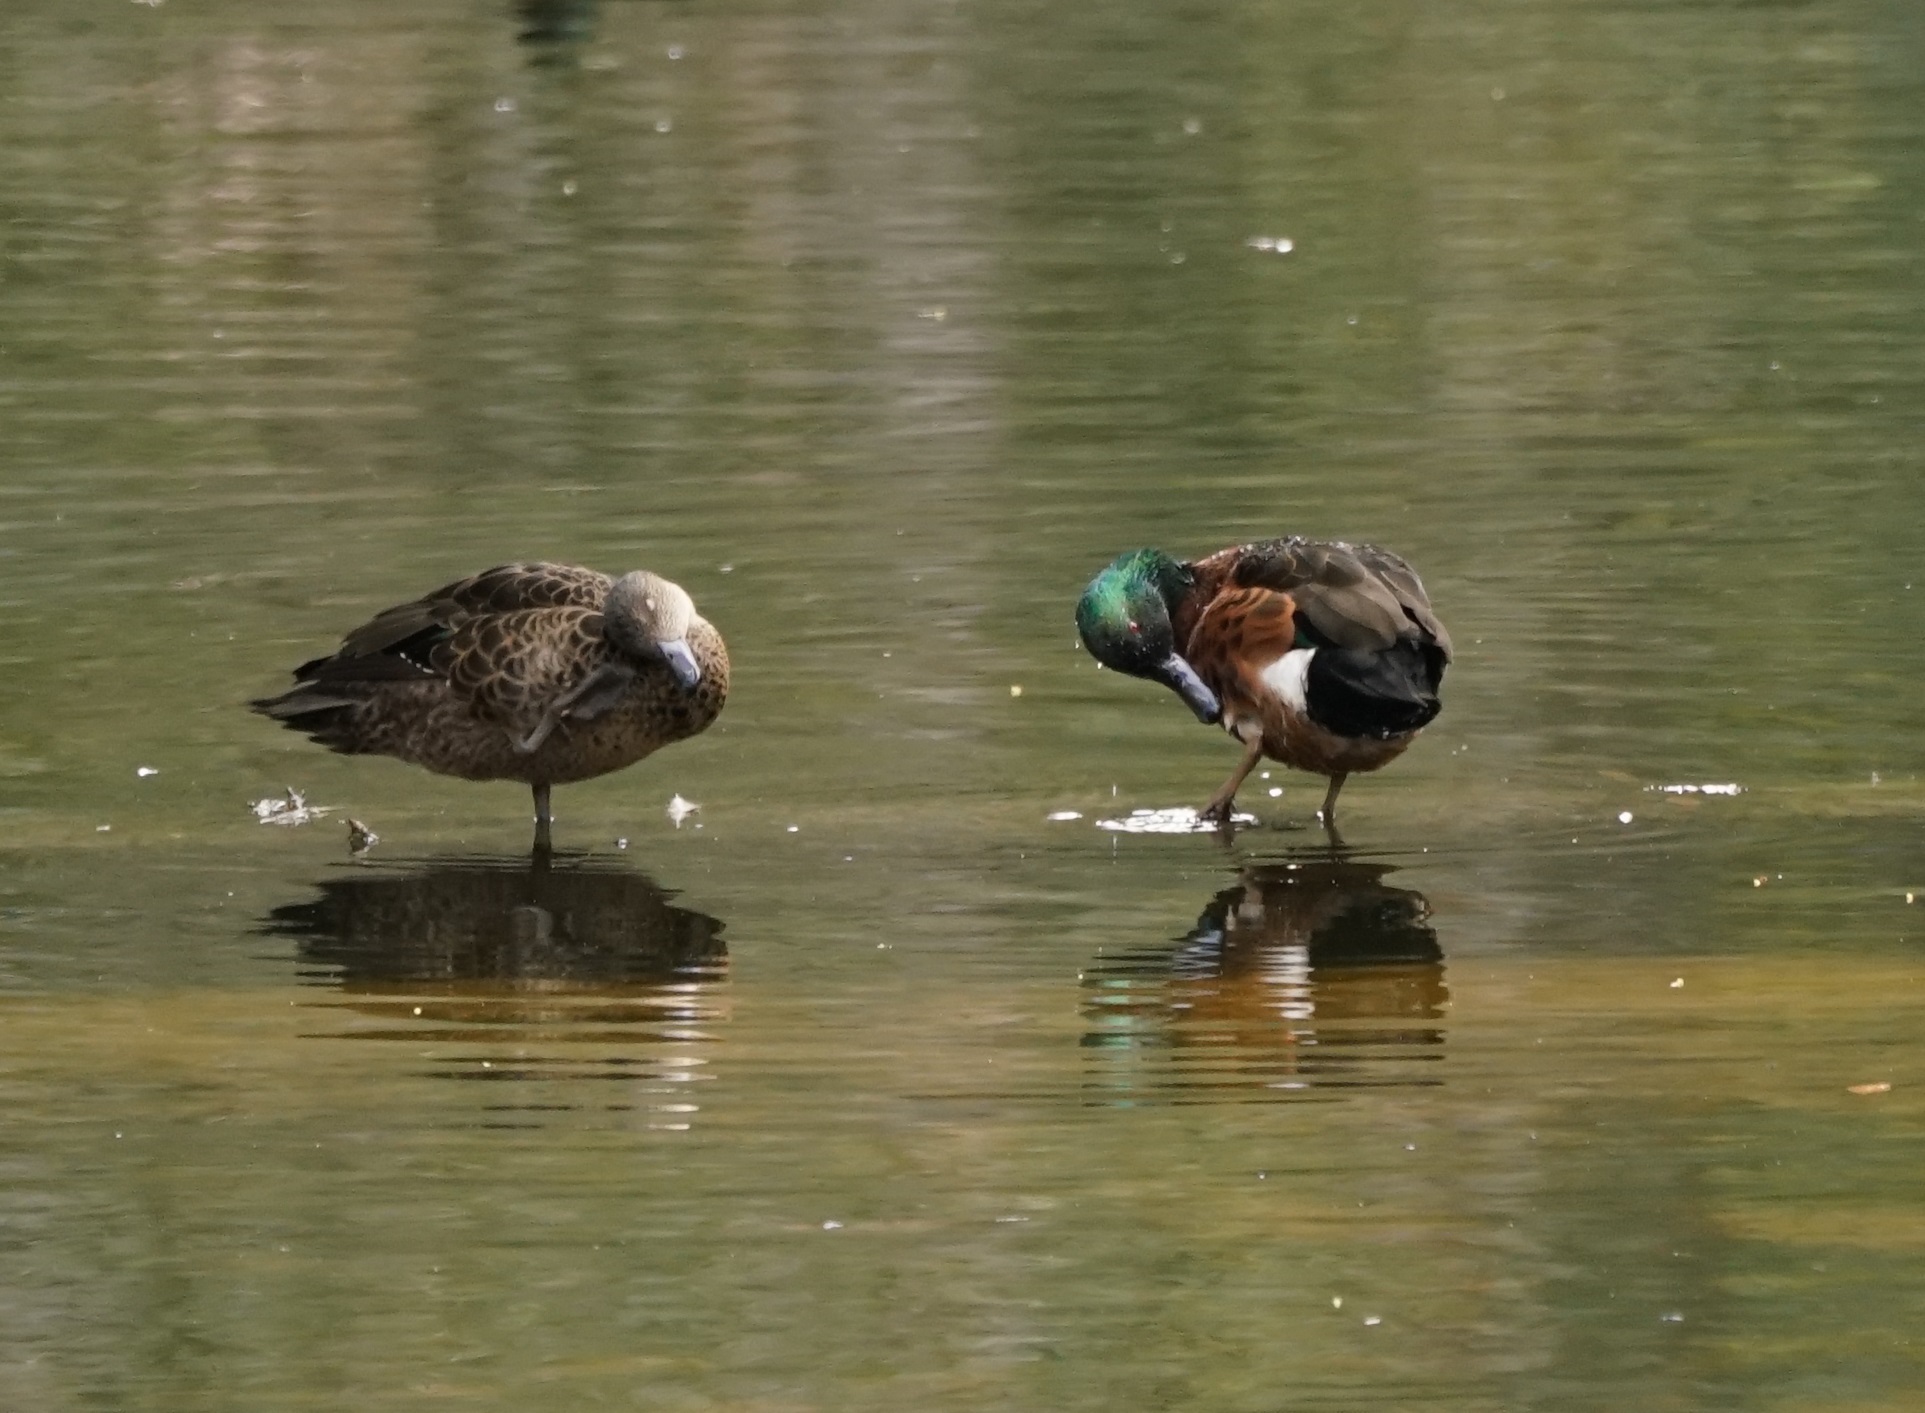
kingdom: Animalia
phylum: Chordata
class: Aves
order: Anseriformes
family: Anatidae
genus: Anas
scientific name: Anas castanea
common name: Chestnut teal
